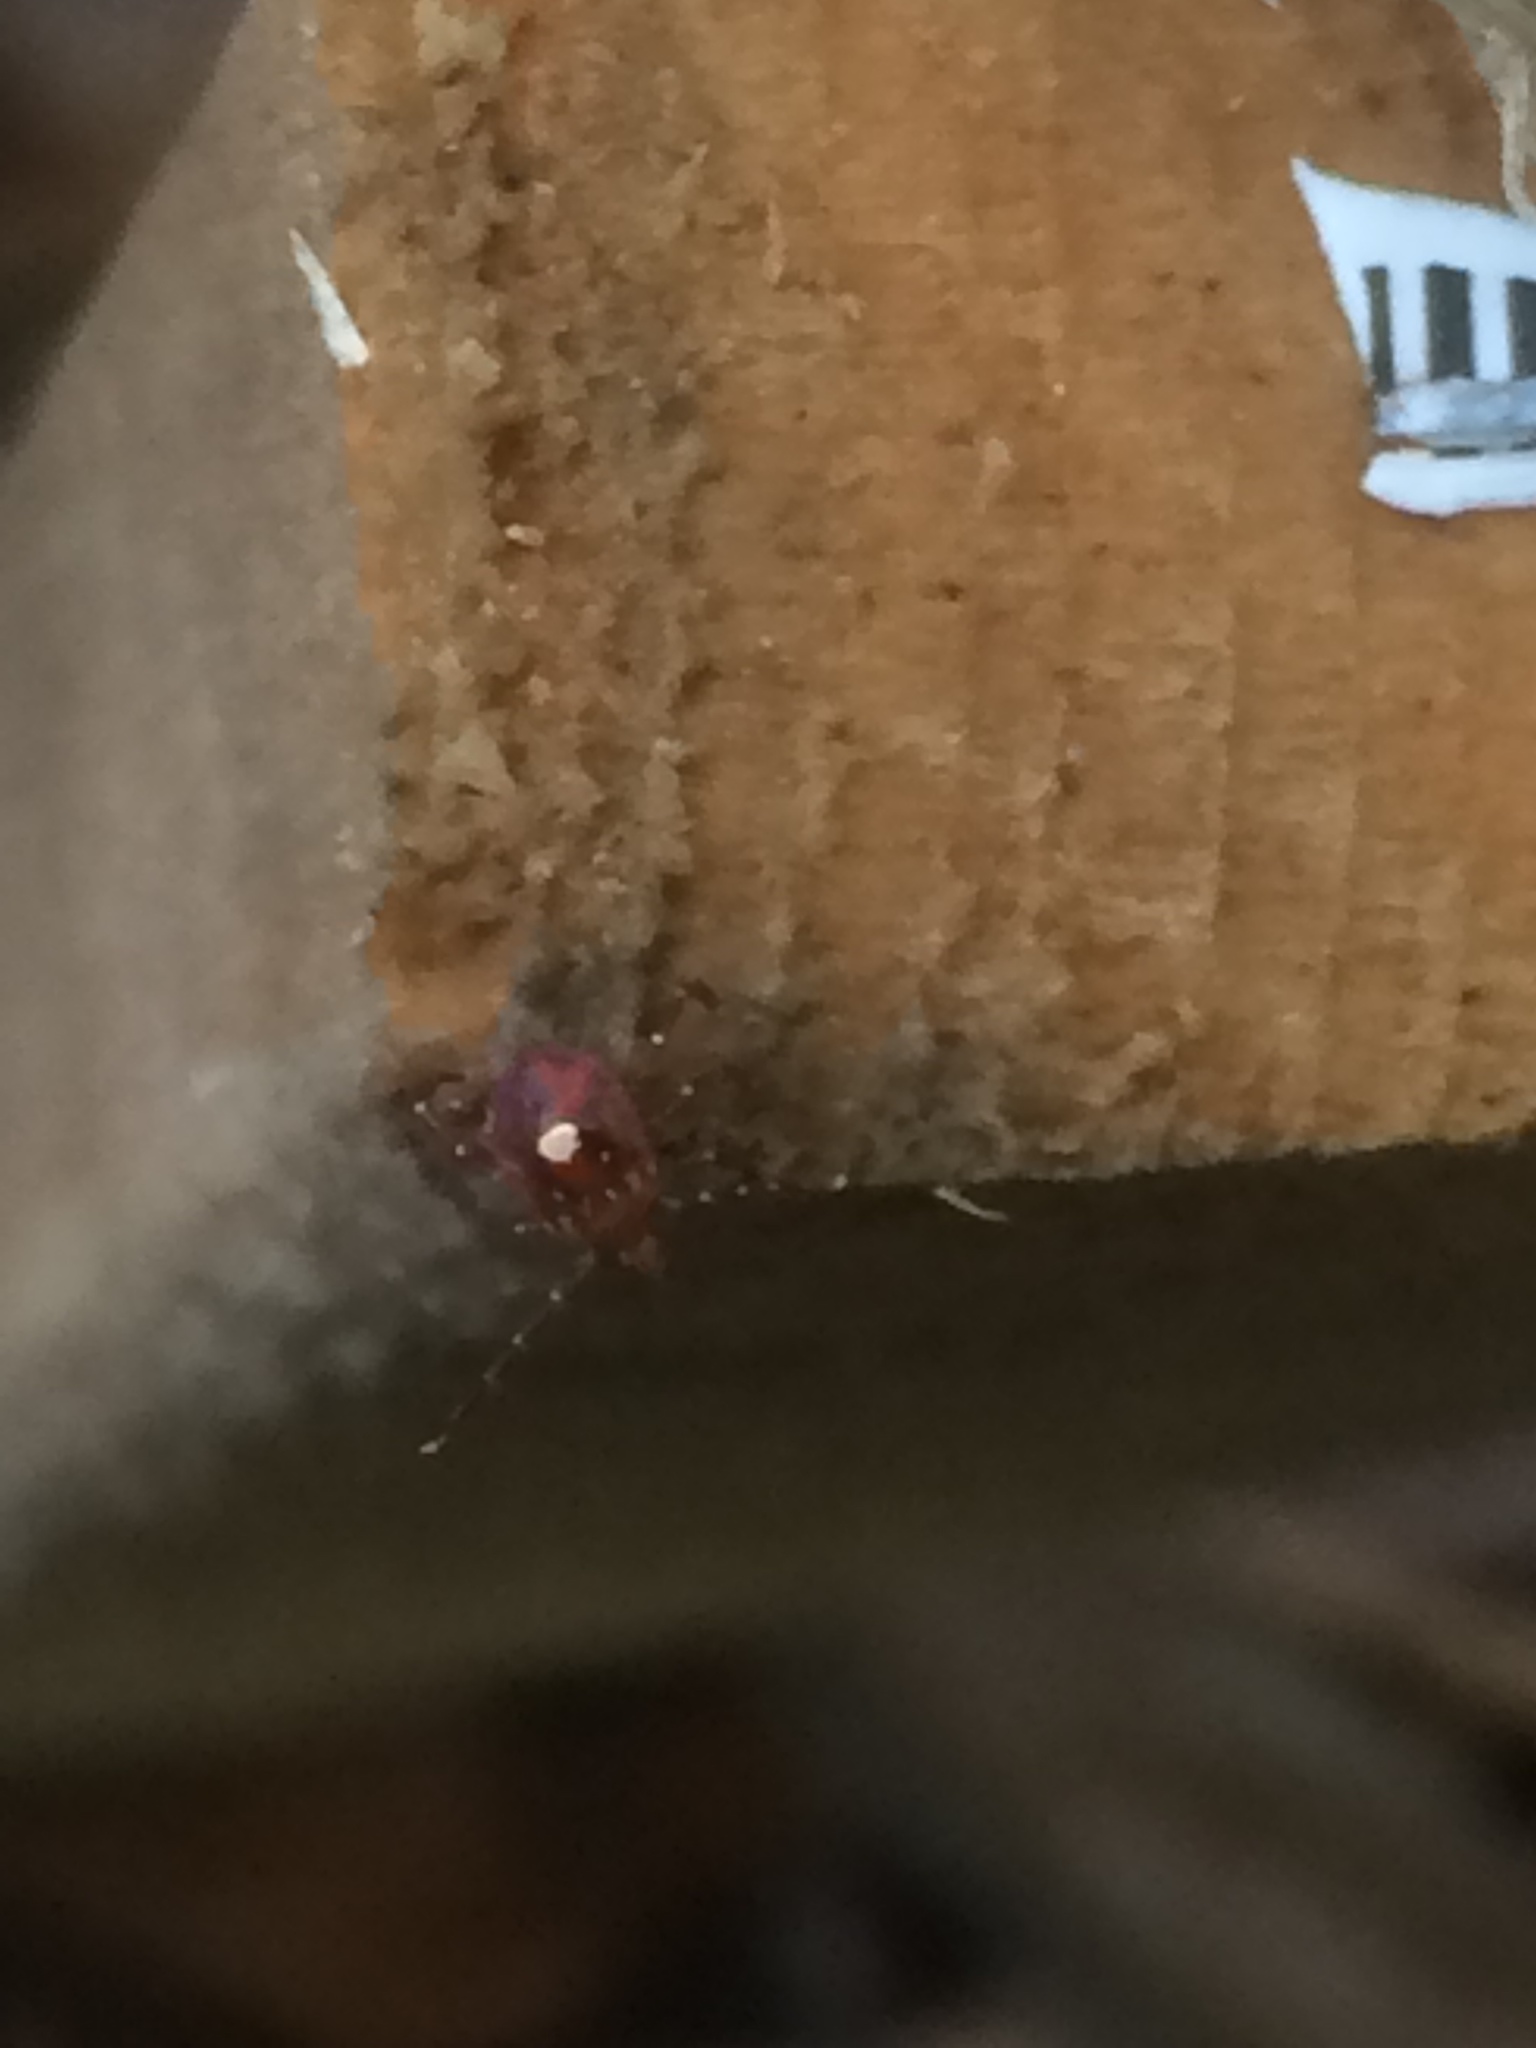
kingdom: Animalia
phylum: Arthropoda
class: Arachnida
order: Ixodida
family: Ixodidae
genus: Amblyomma
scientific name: Amblyomma americanum
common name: Lone star tick
